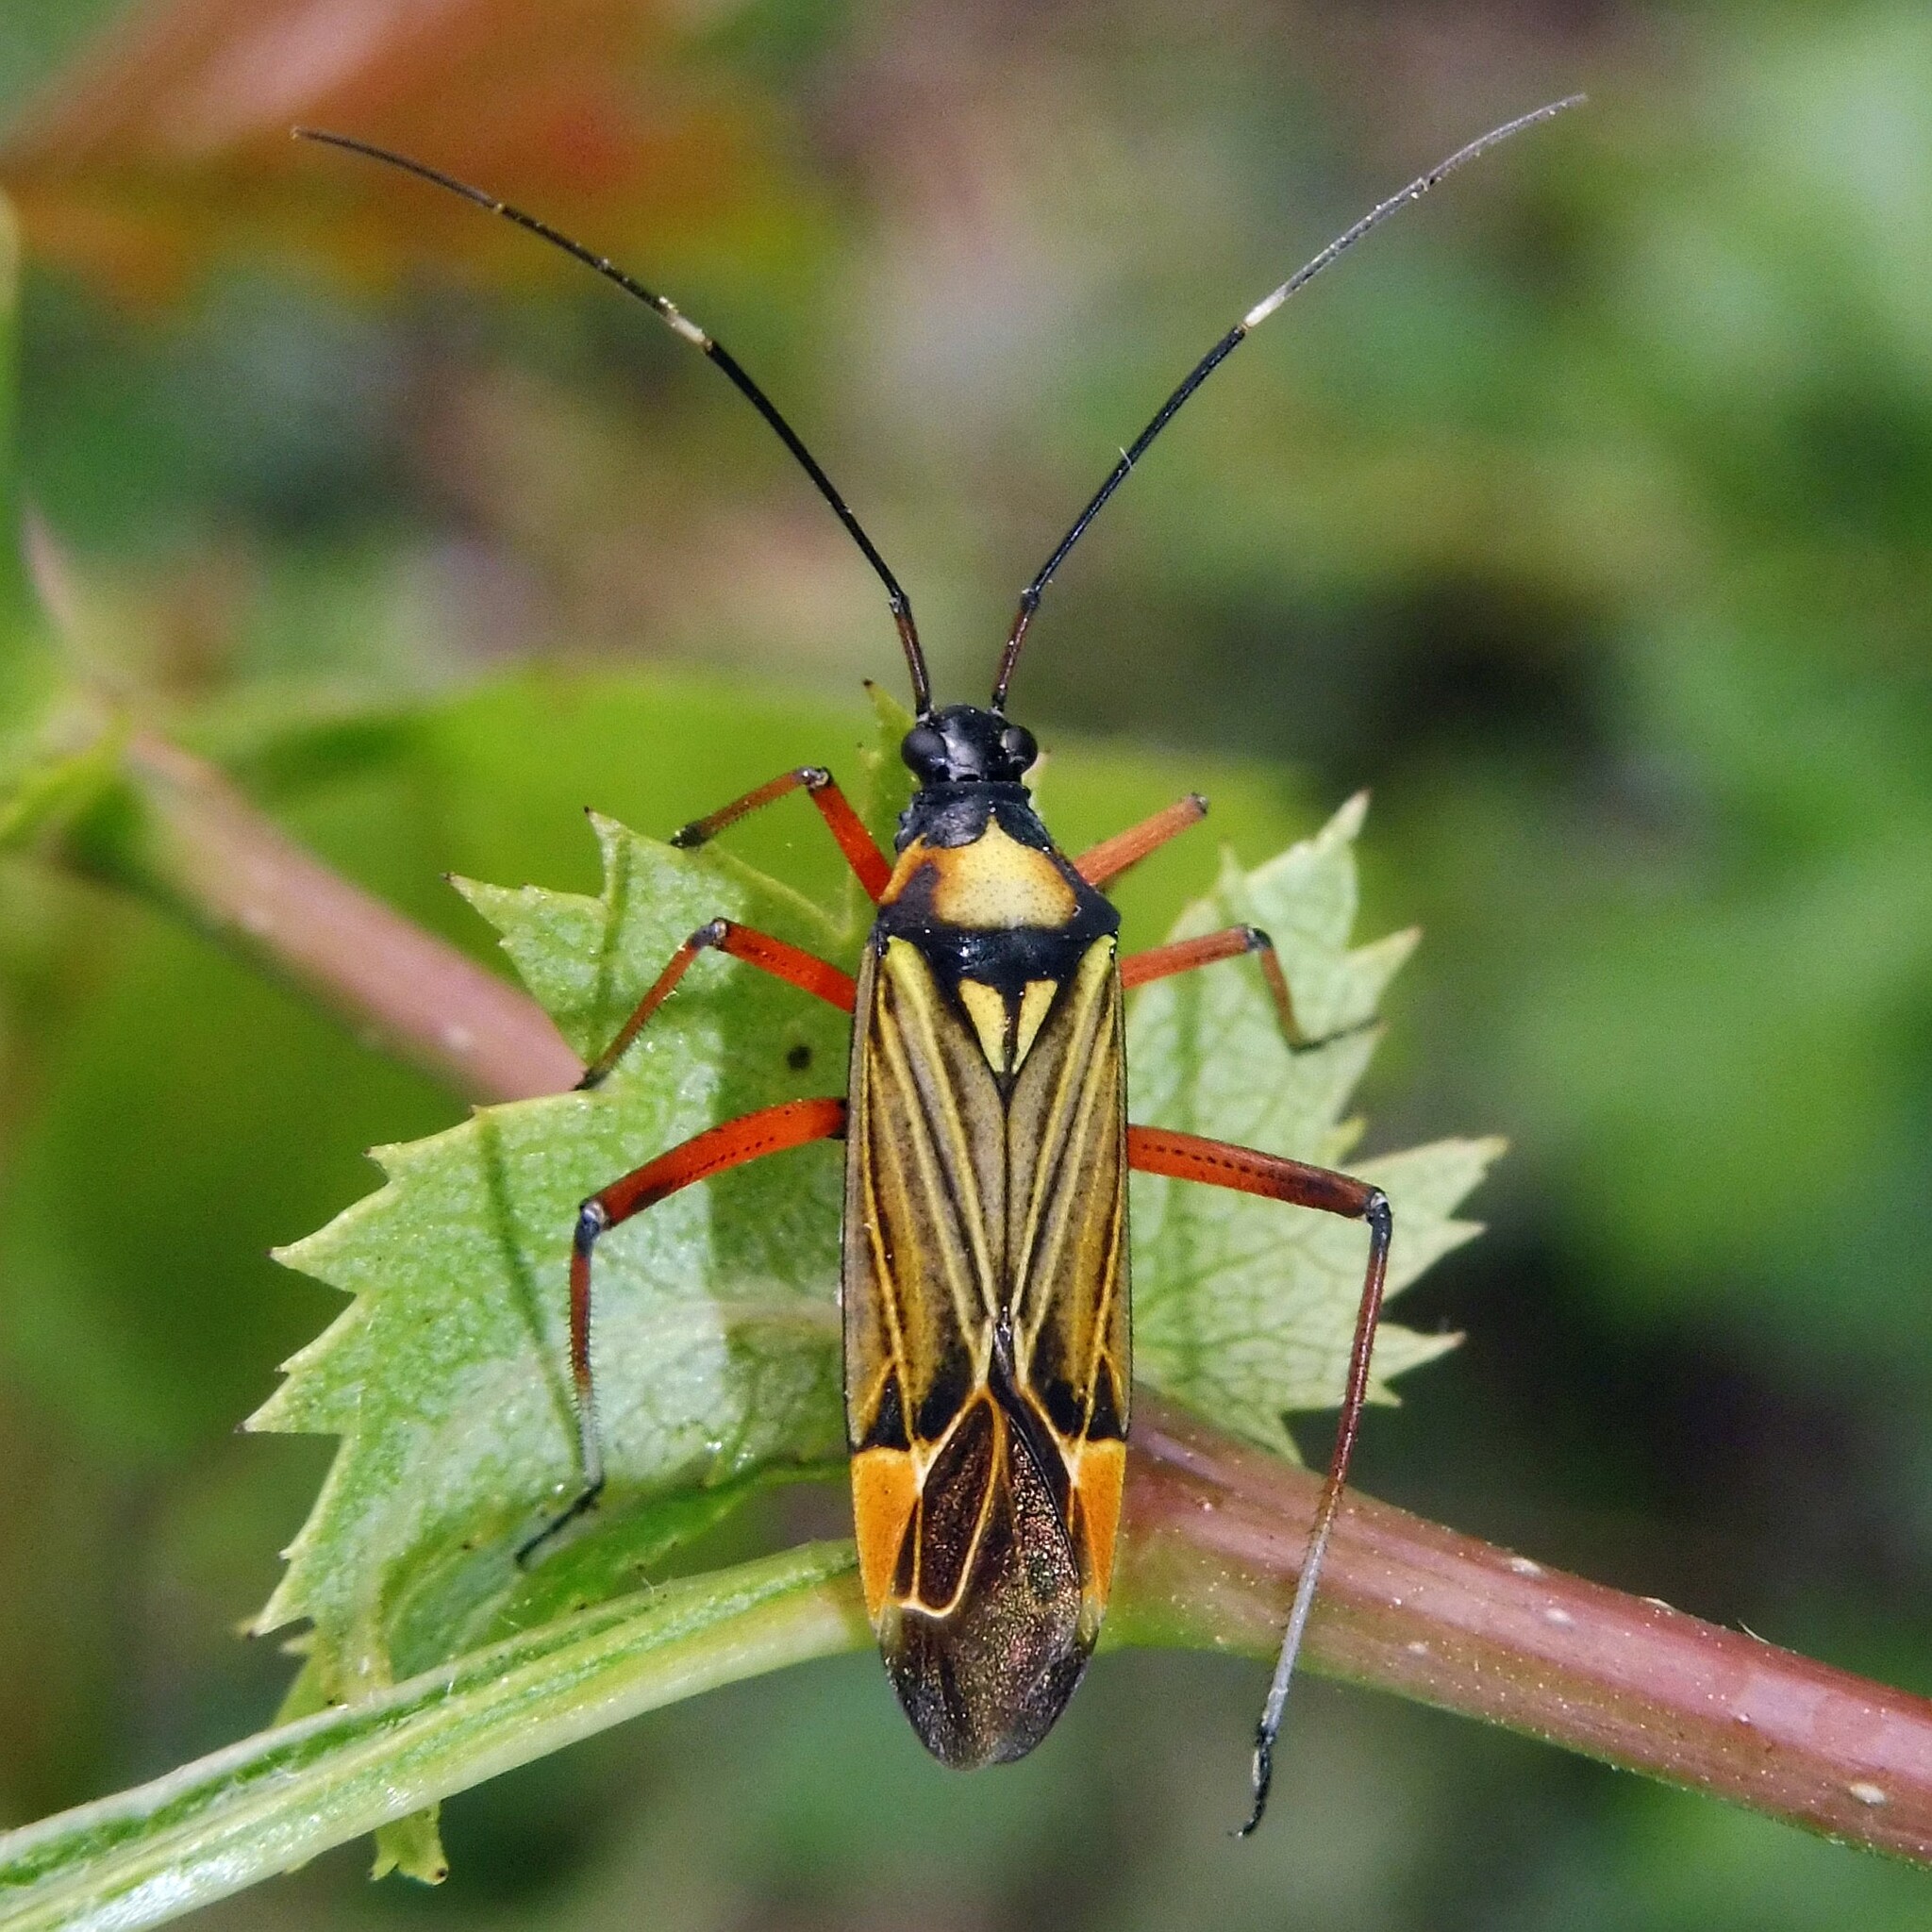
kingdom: Animalia
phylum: Arthropoda
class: Insecta
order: Hemiptera
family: Miridae
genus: Miris
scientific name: Miris striatus
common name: Fine streaked bugkin
